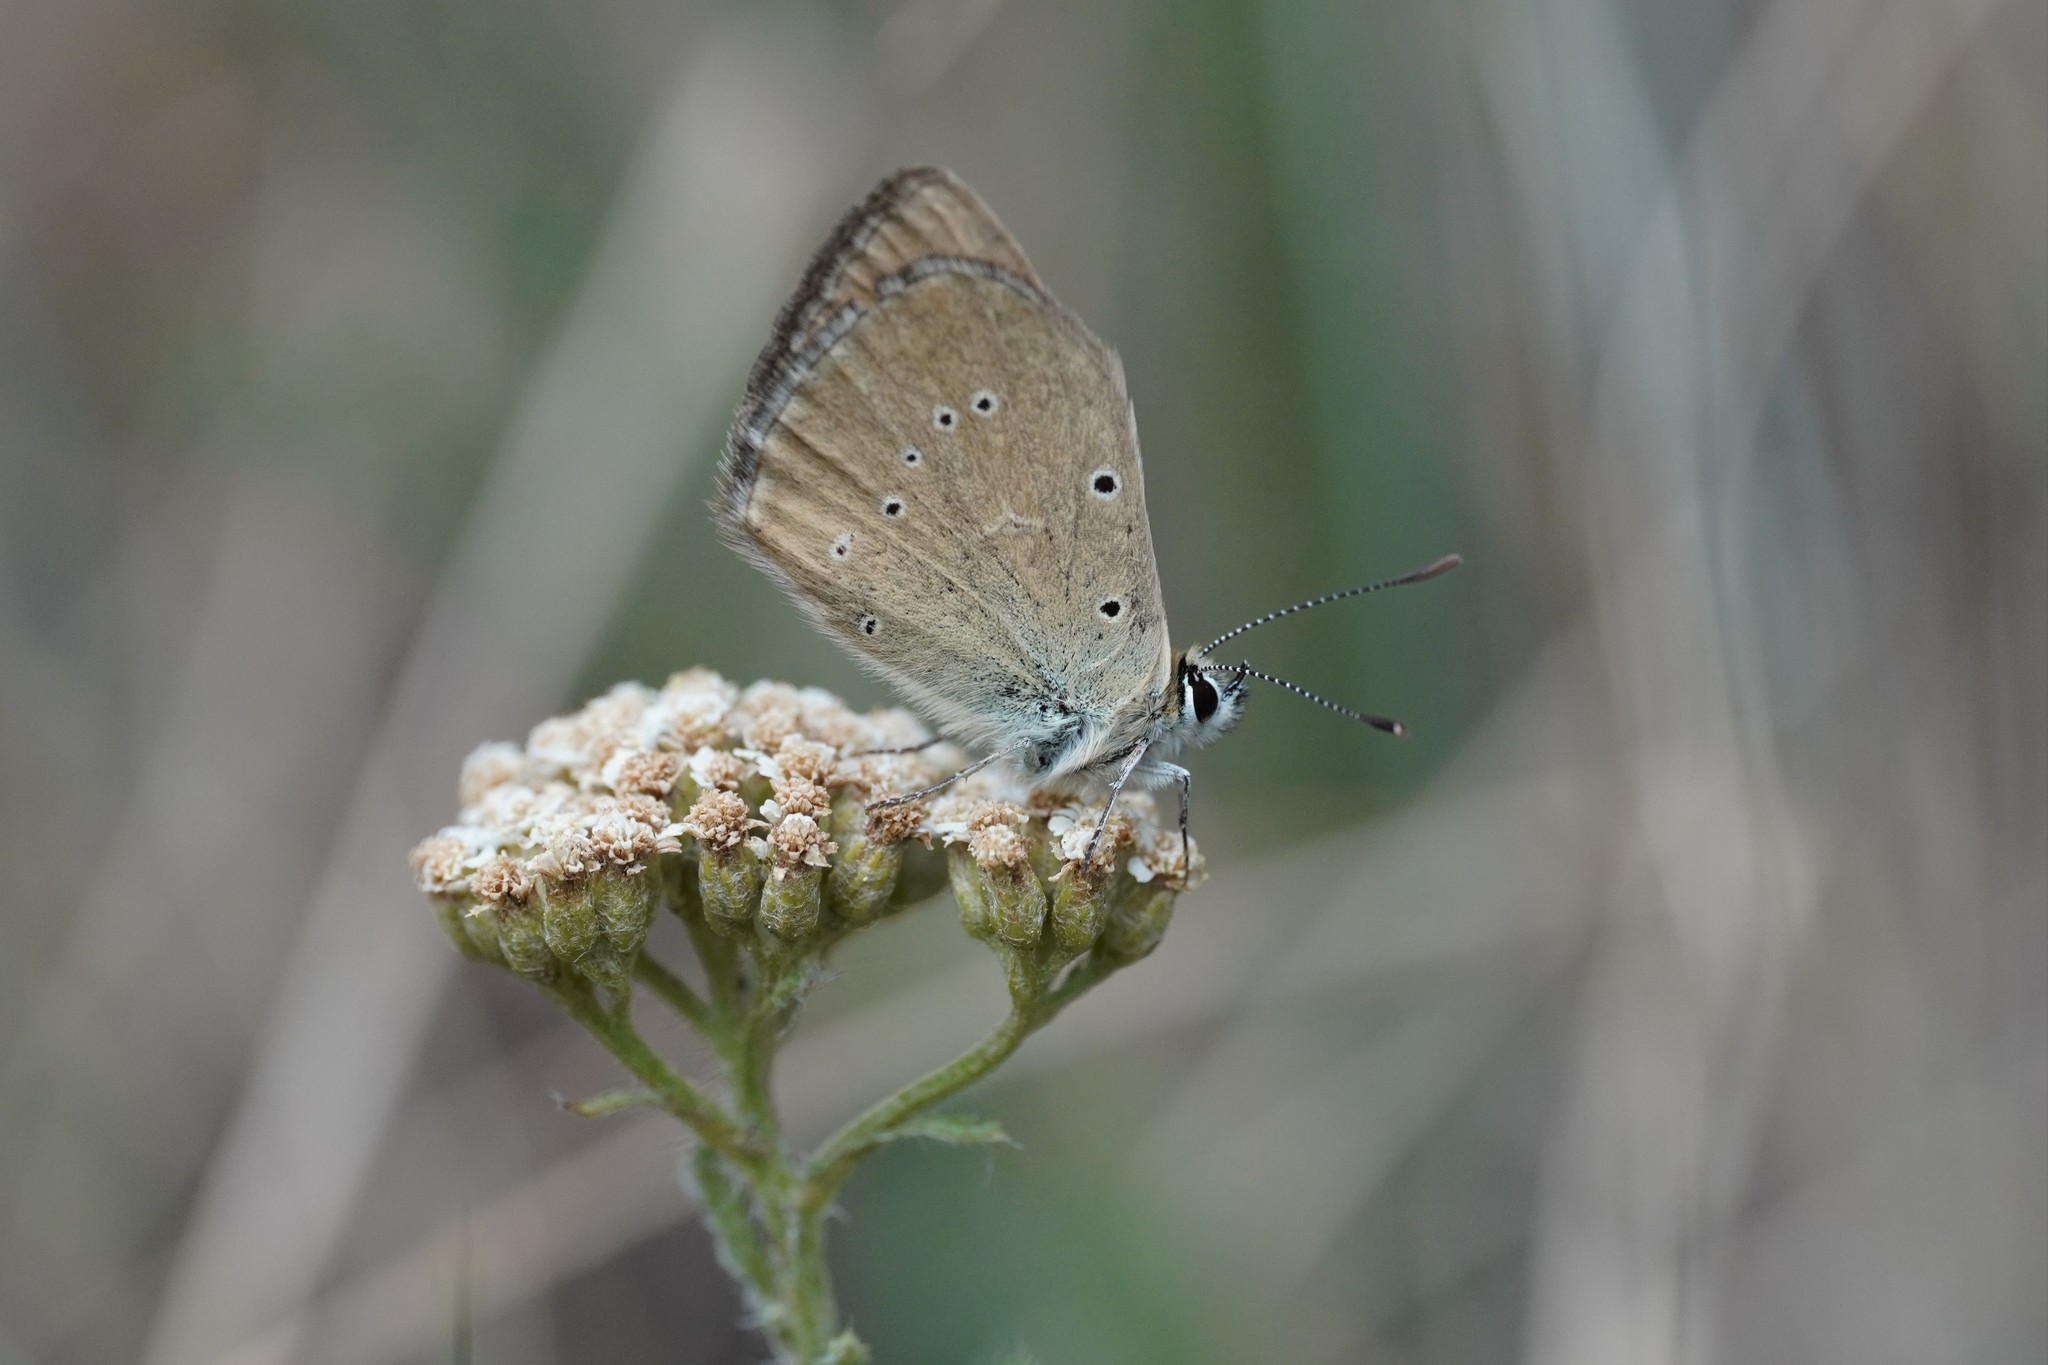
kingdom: Animalia
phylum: Arthropoda
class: Insecta
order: Lepidoptera
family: Lycaenidae
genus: Agrodiaetus
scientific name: Agrodiaetus humedasae
